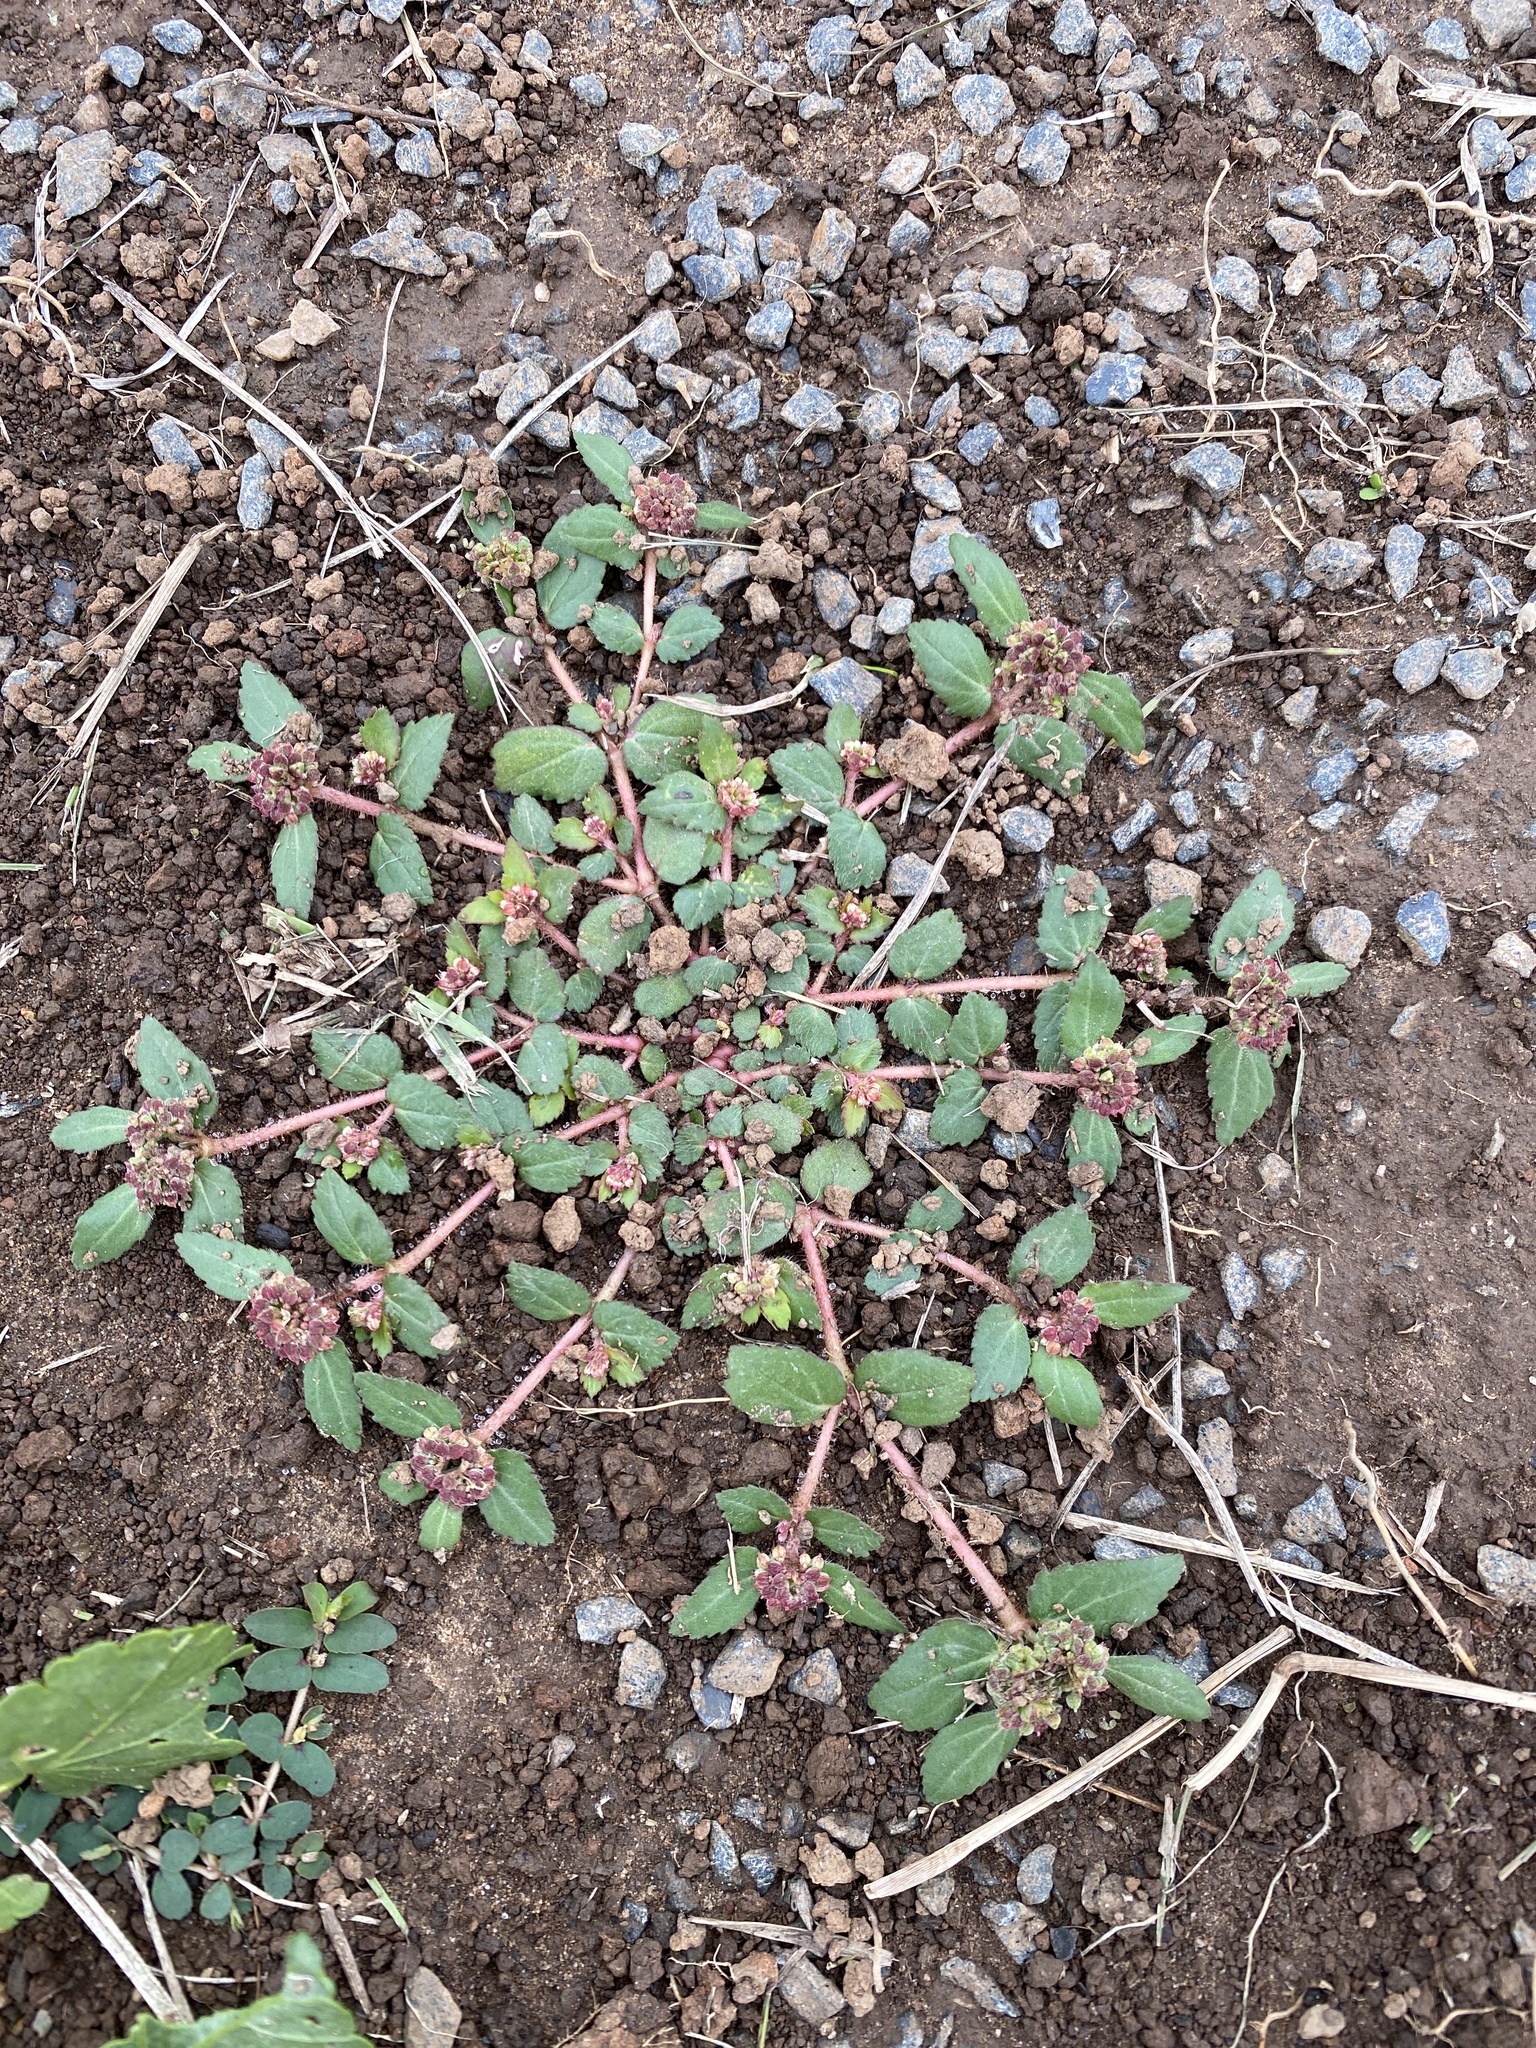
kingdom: Plantae
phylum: Tracheophyta
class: Magnoliopsida
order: Malpighiales
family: Euphorbiaceae
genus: Euphorbia
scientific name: Euphorbia ophthalmica
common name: Florida hammock sandmat
